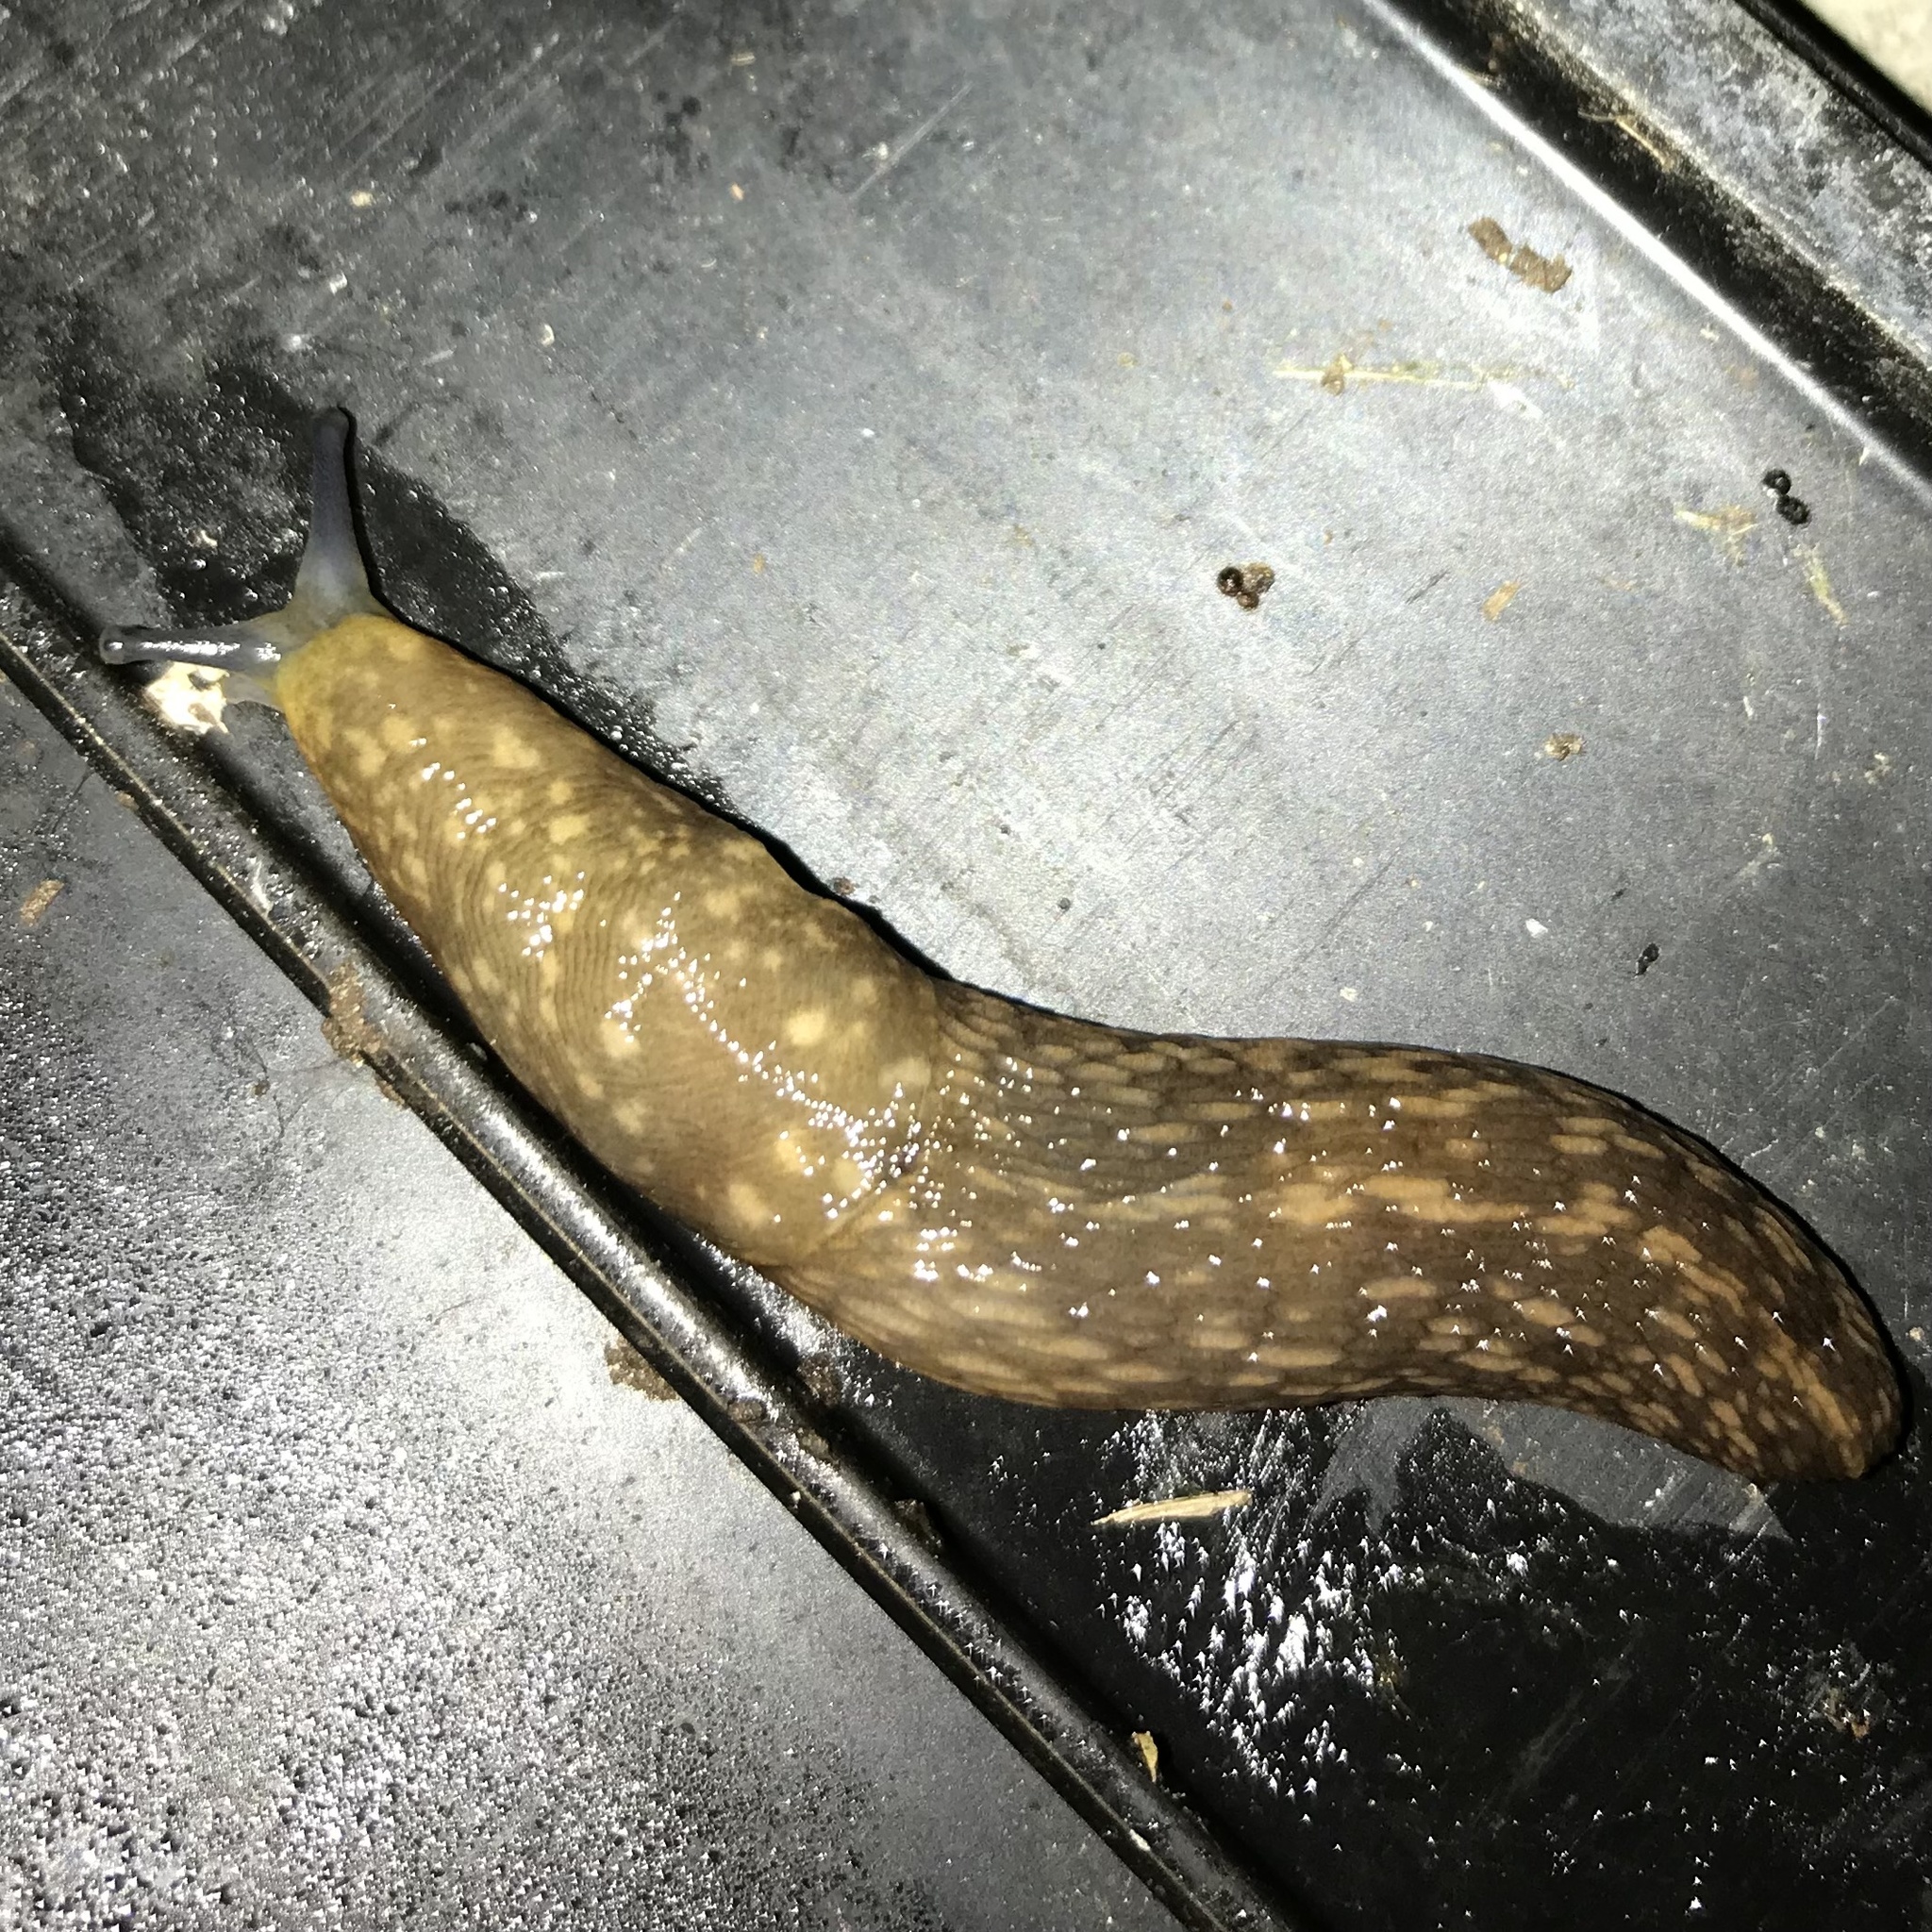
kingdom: Animalia
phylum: Mollusca
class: Gastropoda
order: Stylommatophora
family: Limacidae
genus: Limacus
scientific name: Limacus flavus
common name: Yellow gardenslug
